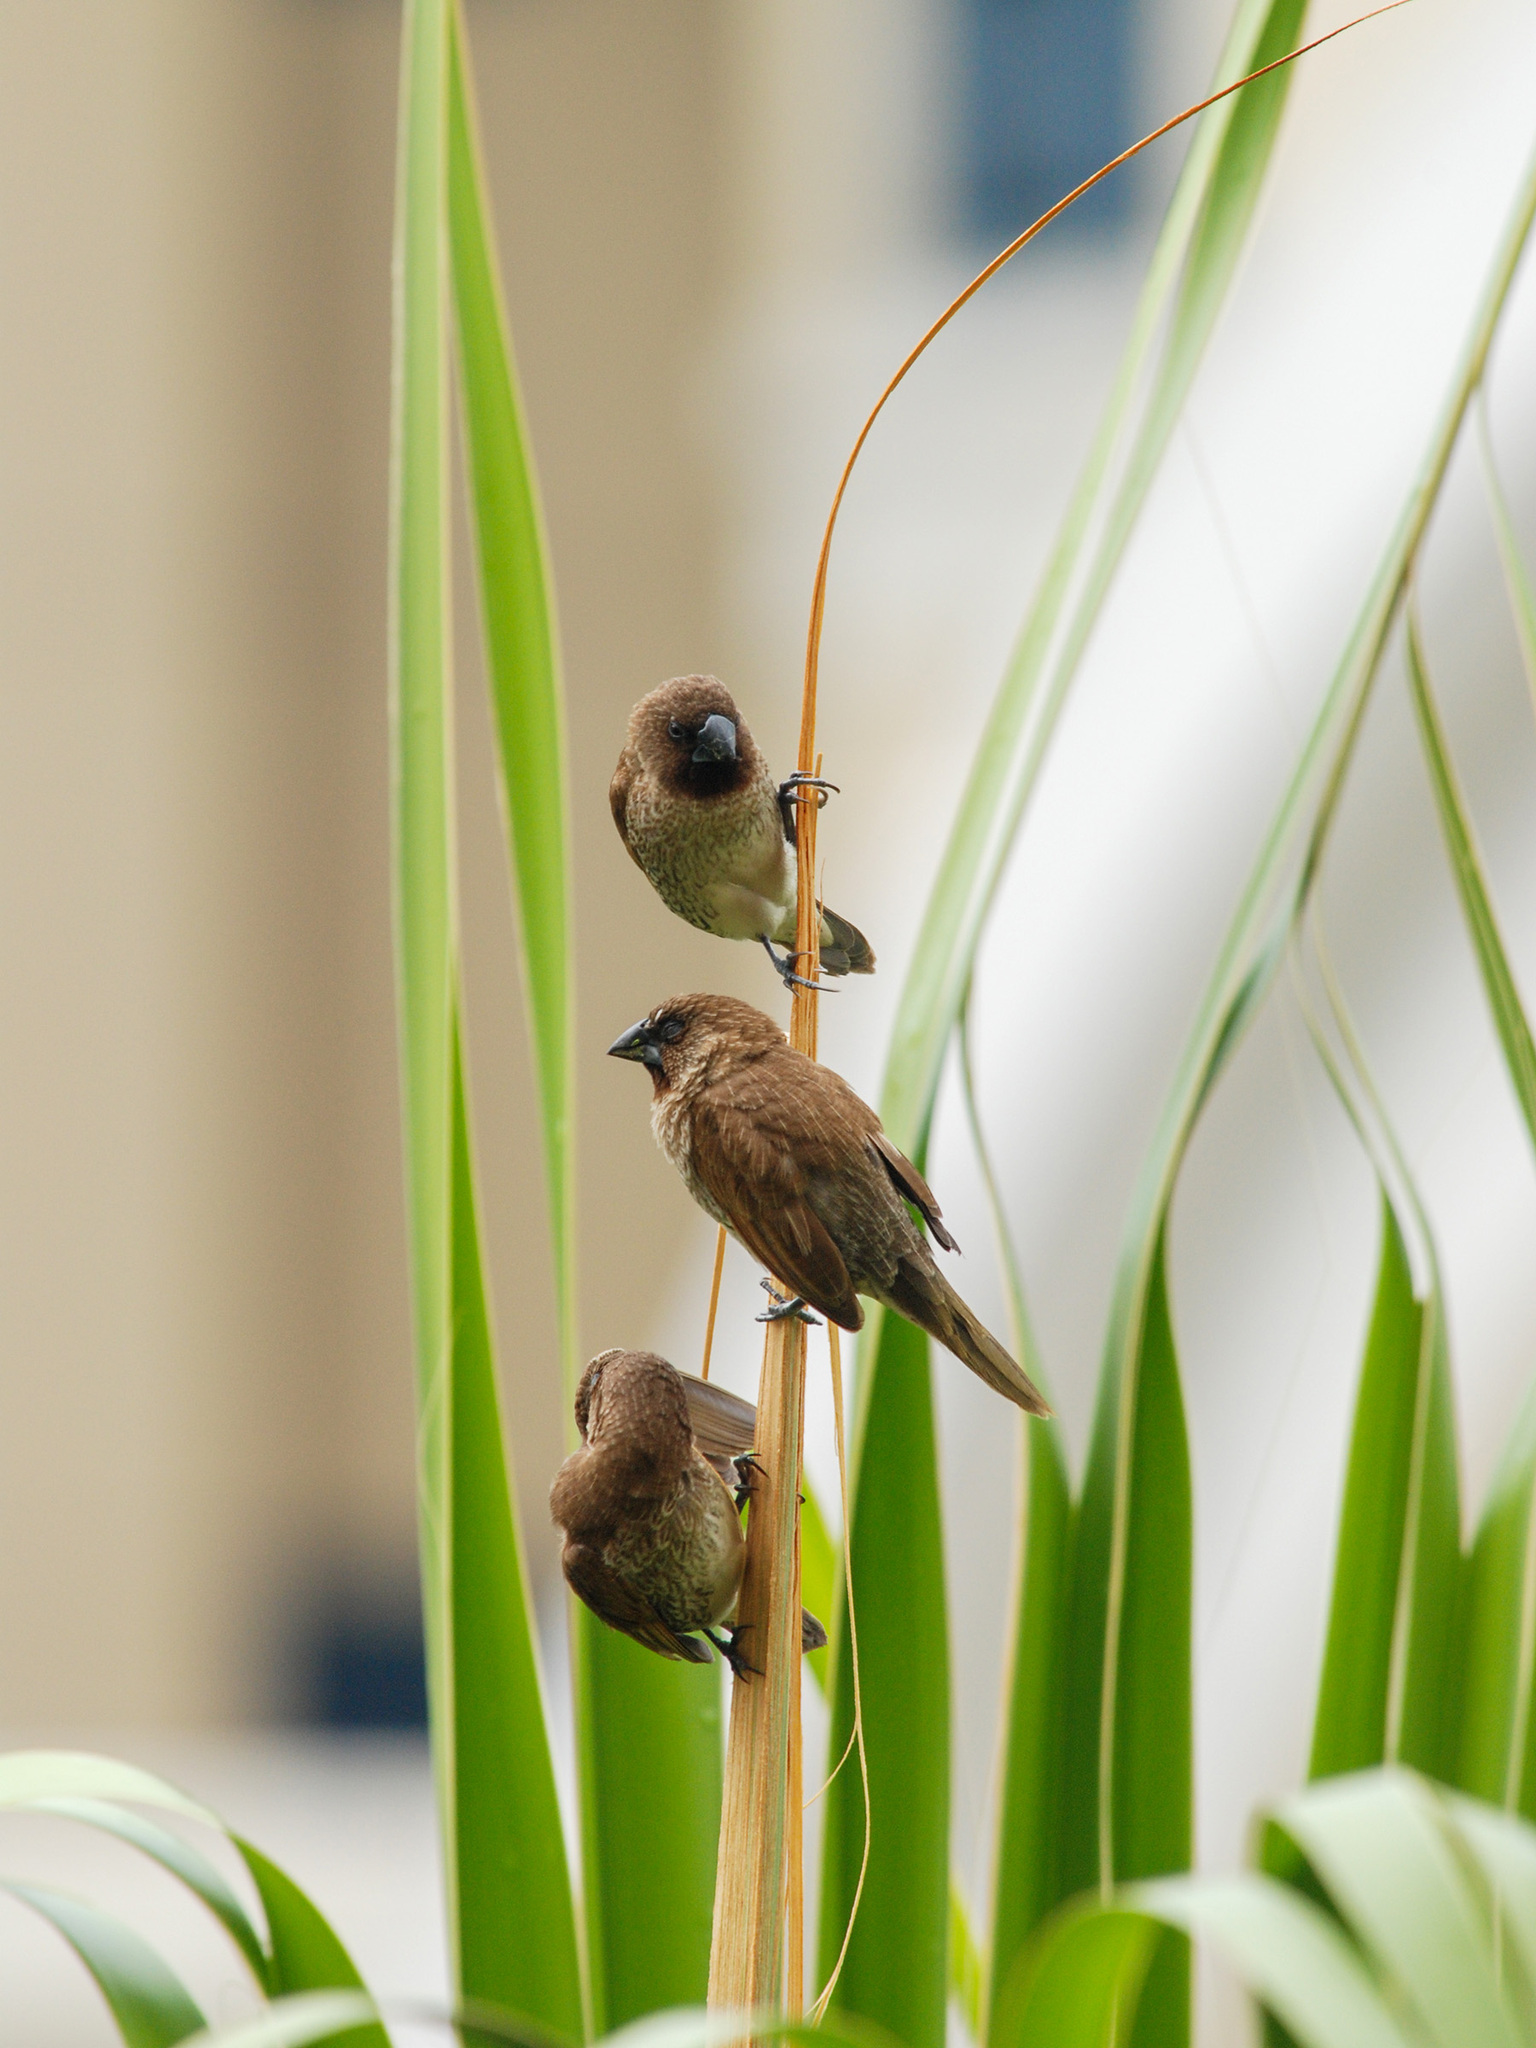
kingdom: Animalia
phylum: Chordata
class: Aves
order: Passeriformes
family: Estrildidae
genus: Lonchura
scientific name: Lonchura punctulata
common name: Scaly-breasted munia
